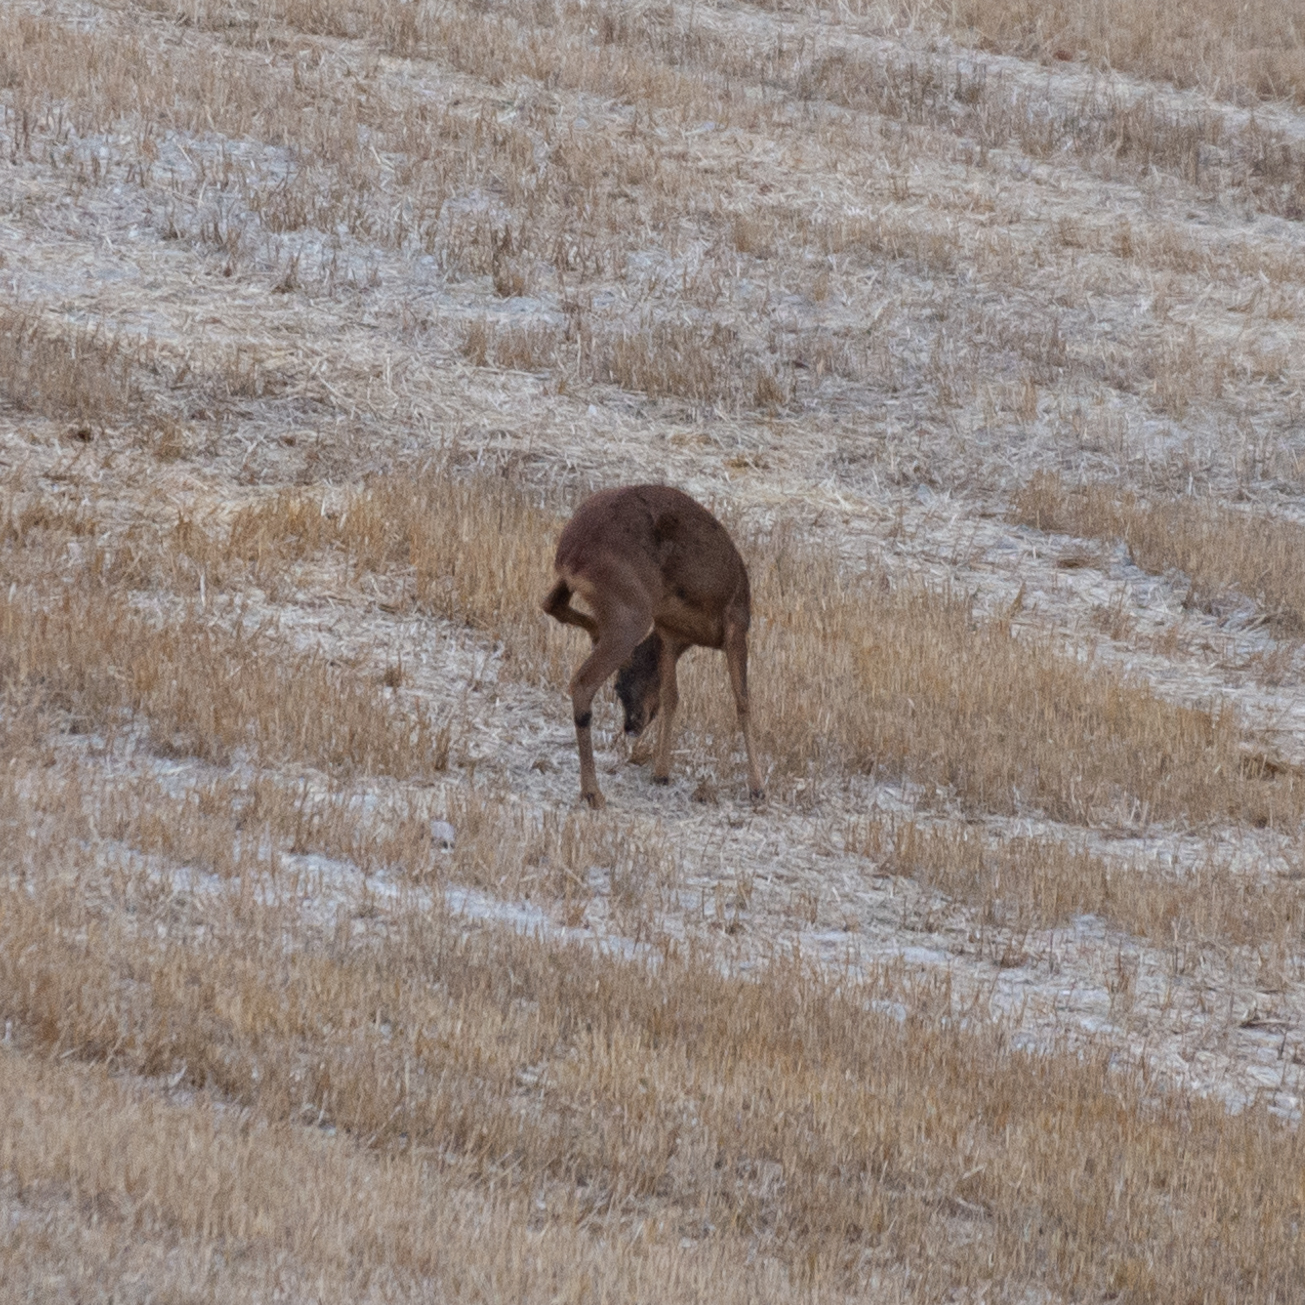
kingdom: Animalia
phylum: Chordata
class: Mammalia
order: Artiodactyla
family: Cervidae
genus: Capreolus
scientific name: Capreolus capreolus
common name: Western roe deer
